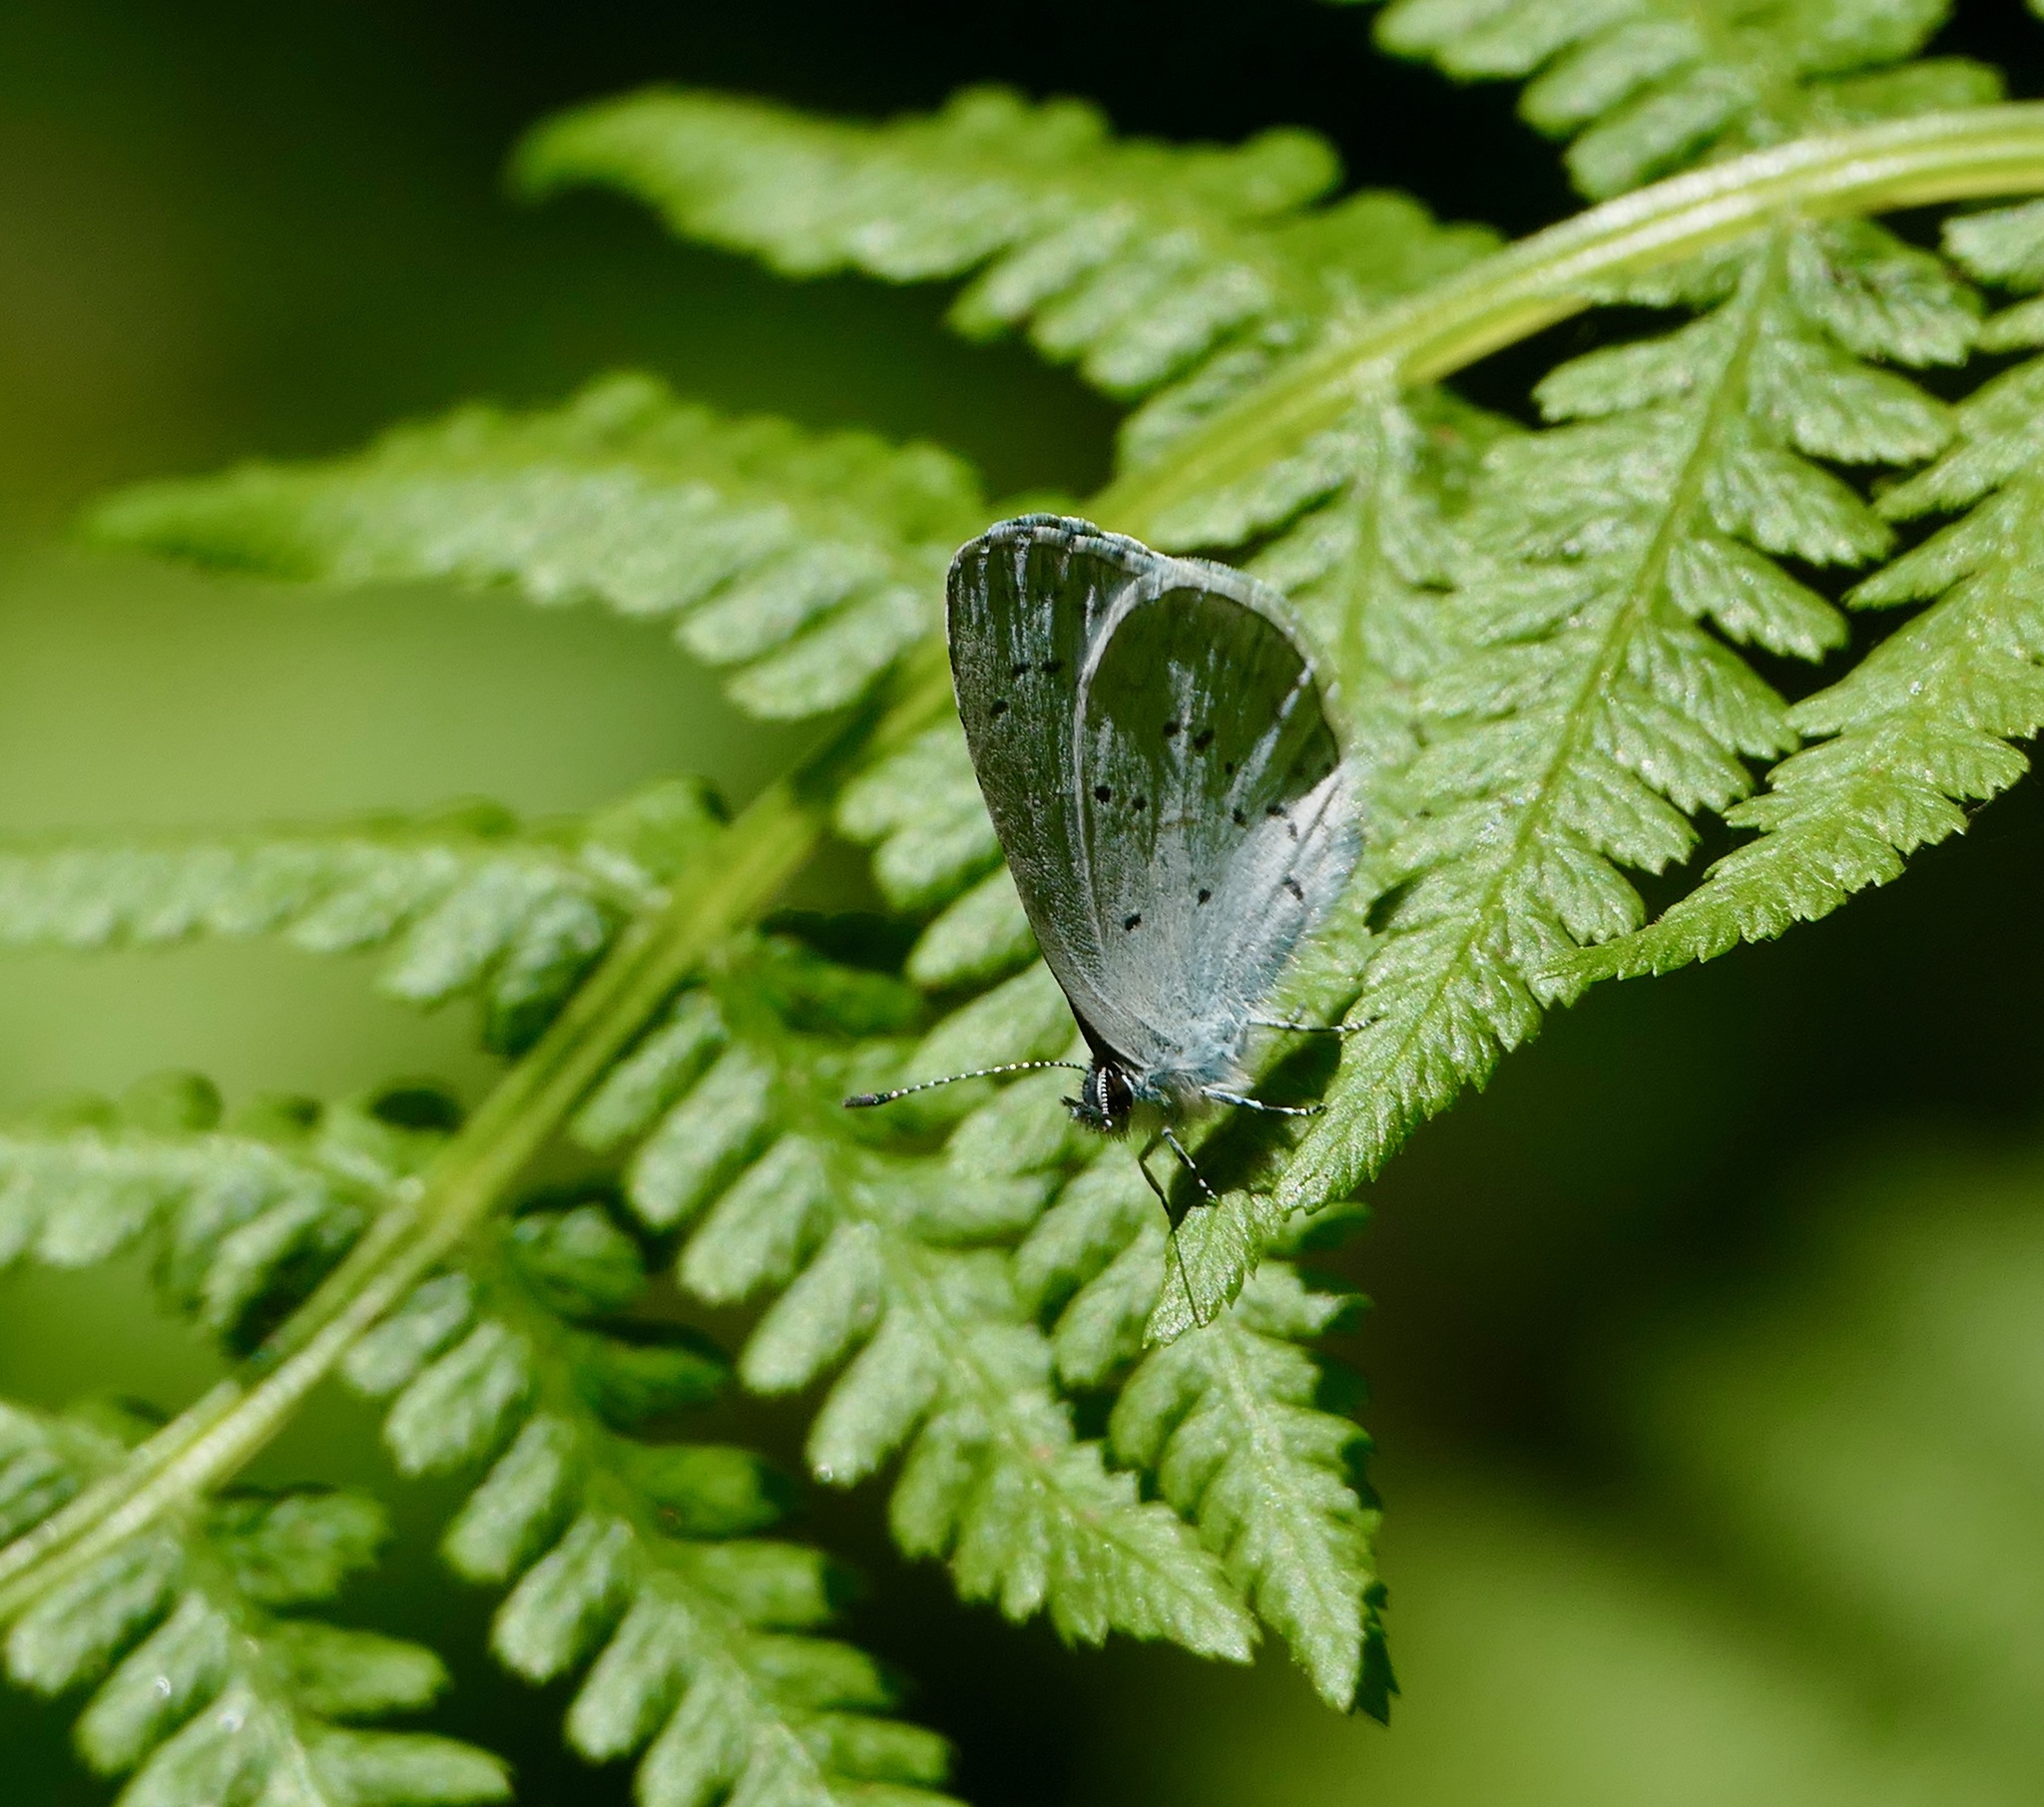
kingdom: Animalia
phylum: Arthropoda
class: Insecta
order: Lepidoptera
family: Lycaenidae
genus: Celastrina
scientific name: Celastrina ladon
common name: Spring azure
